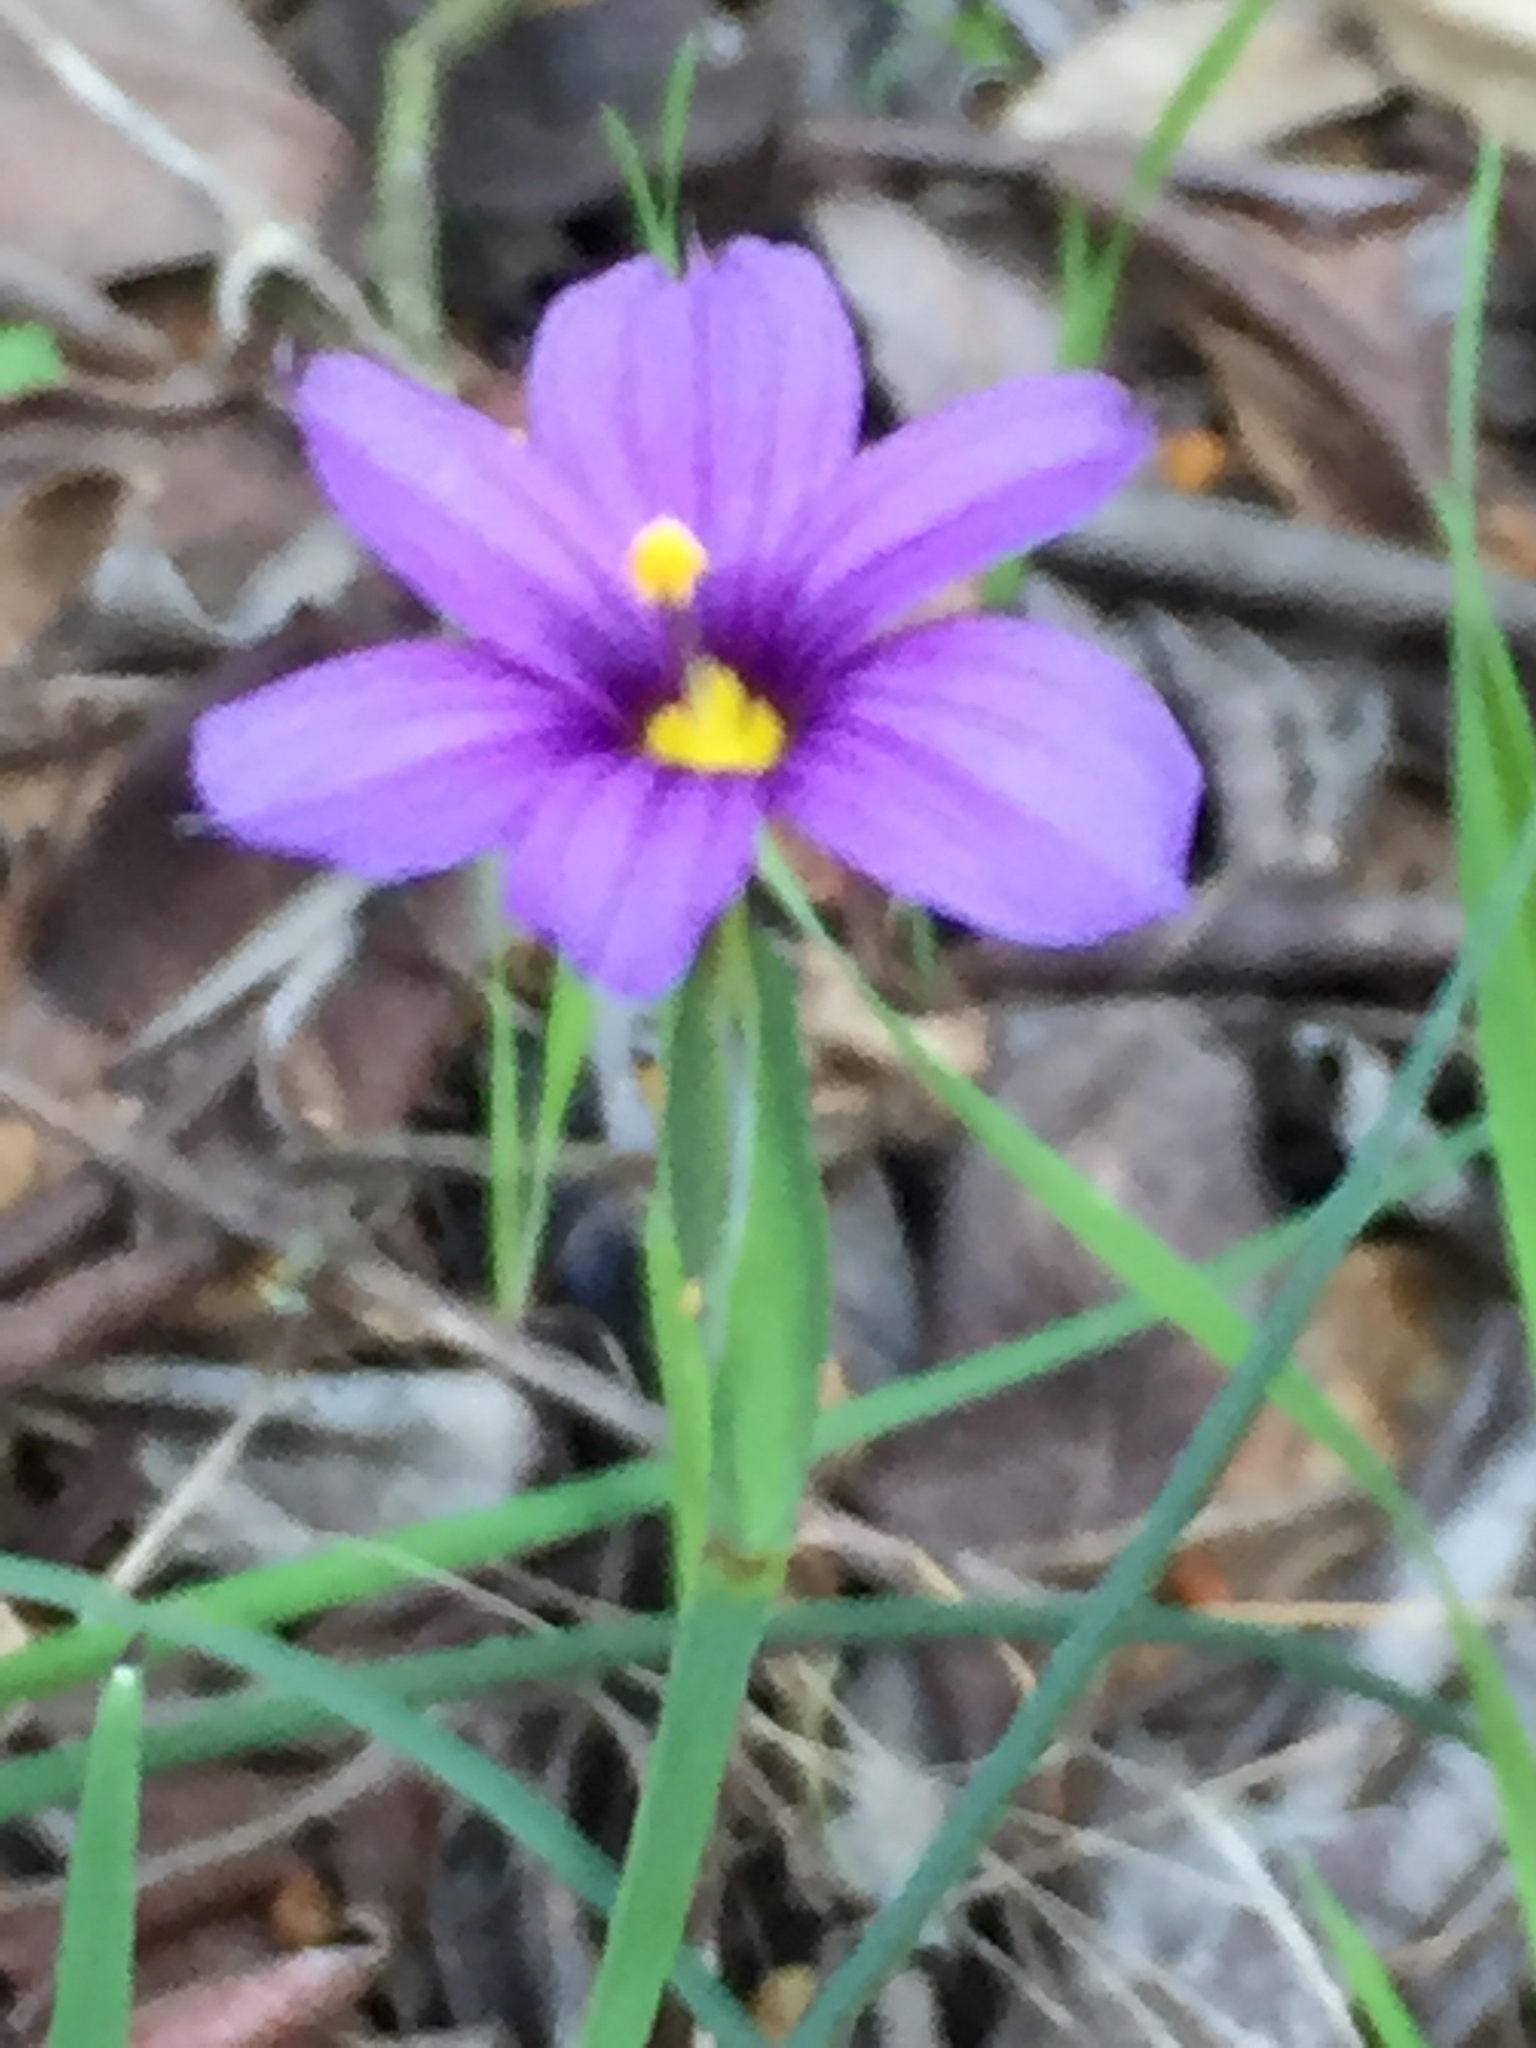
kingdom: Plantae
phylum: Tracheophyta
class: Liliopsida
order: Asparagales
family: Iridaceae
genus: Sisyrinchium
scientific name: Sisyrinchium bellum
